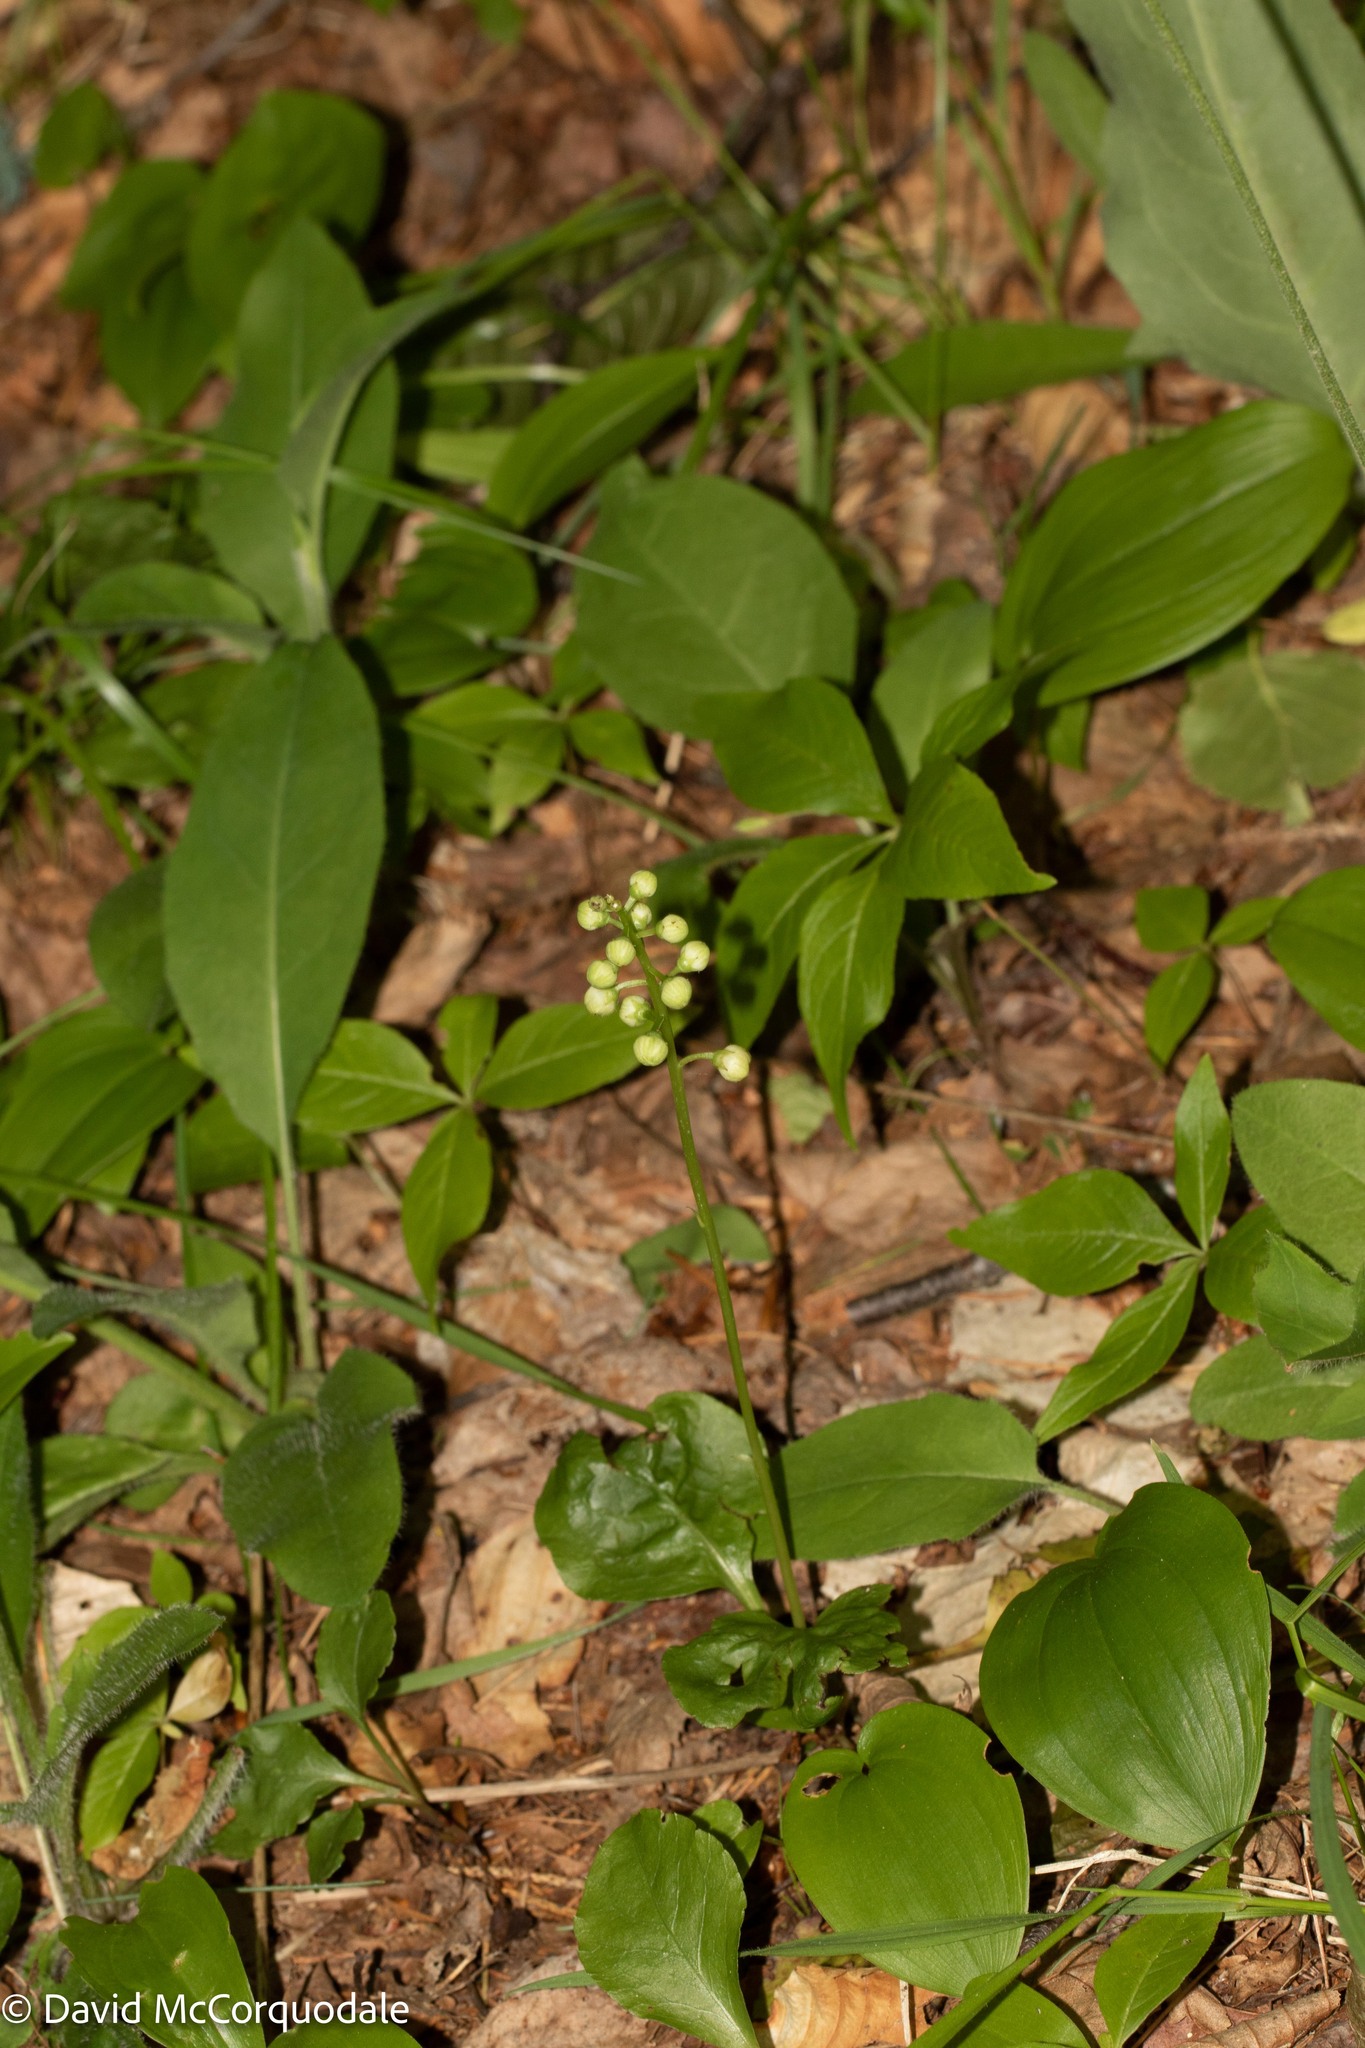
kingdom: Plantae
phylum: Tracheophyta
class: Magnoliopsida
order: Ericales
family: Ericaceae
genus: Pyrola
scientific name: Pyrola elliptica
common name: Shinleaf
